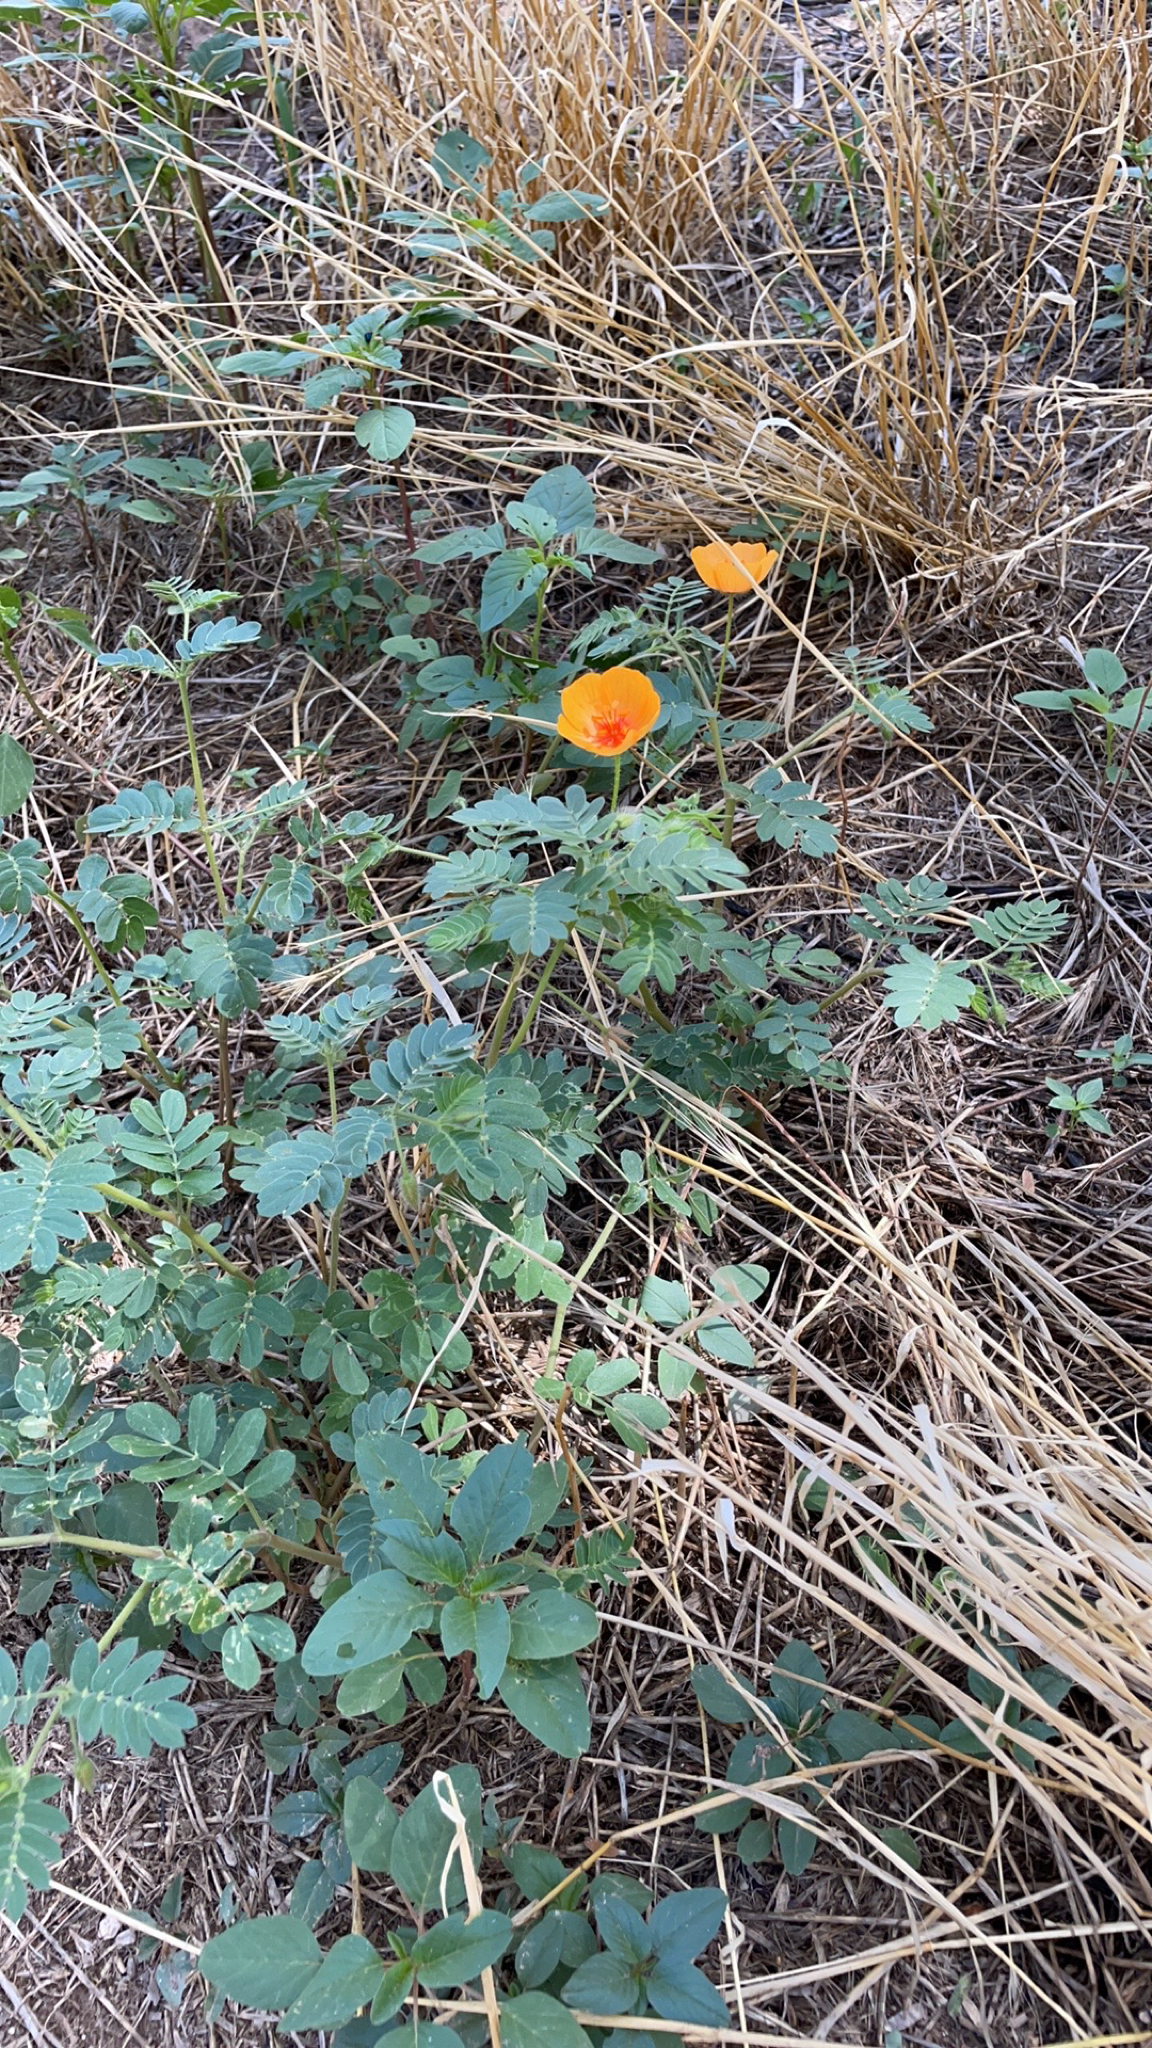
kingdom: Plantae
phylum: Tracheophyta
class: Magnoliopsida
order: Zygophyllales
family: Zygophyllaceae
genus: Kallstroemia
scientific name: Kallstroemia grandiflora
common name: Arizona-poppy
